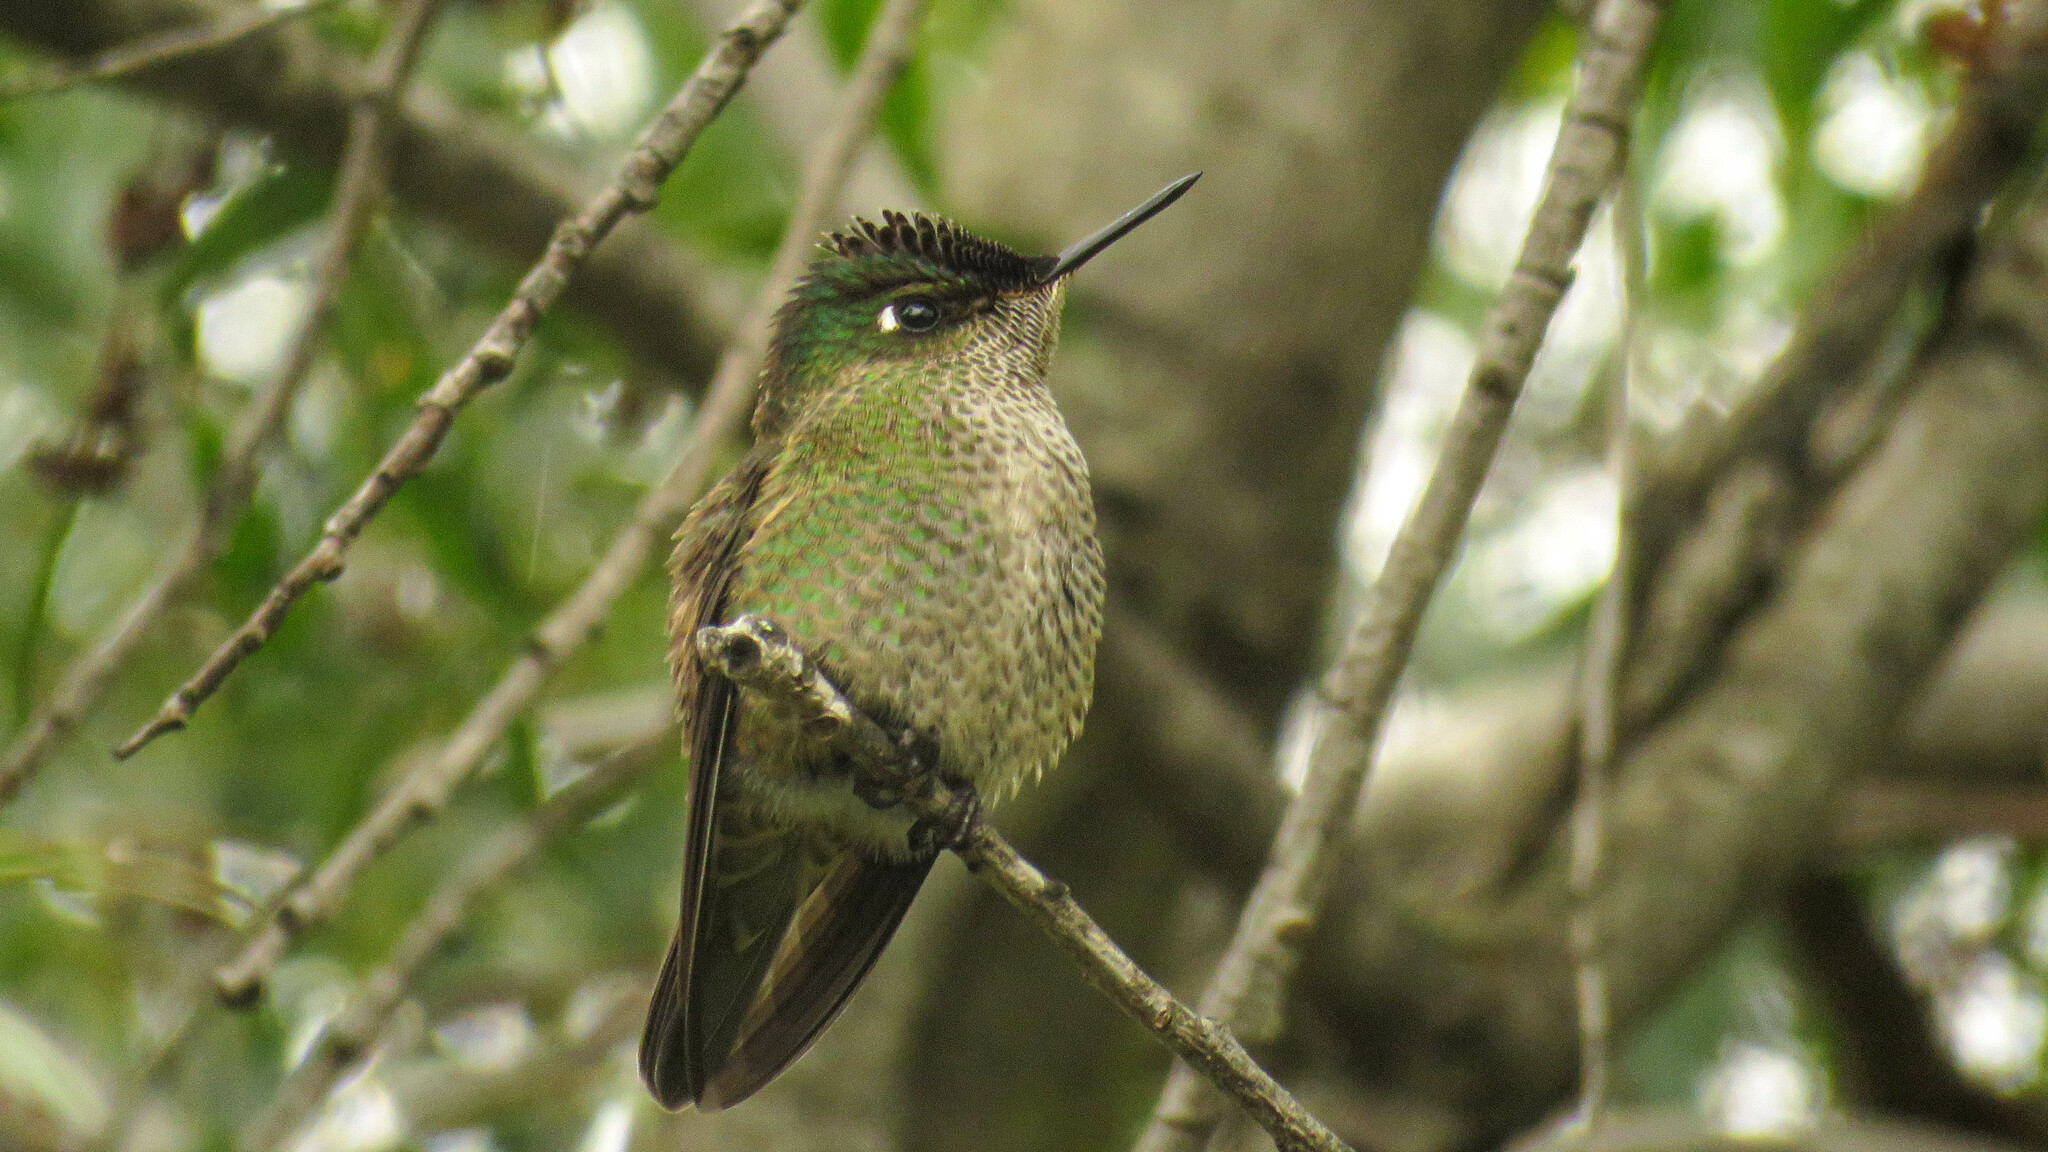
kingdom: Animalia
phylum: Chordata
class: Aves
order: Apodiformes
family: Trochilidae
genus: Sephanoides
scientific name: Sephanoides sephaniodes
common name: Green-backed firecrown
